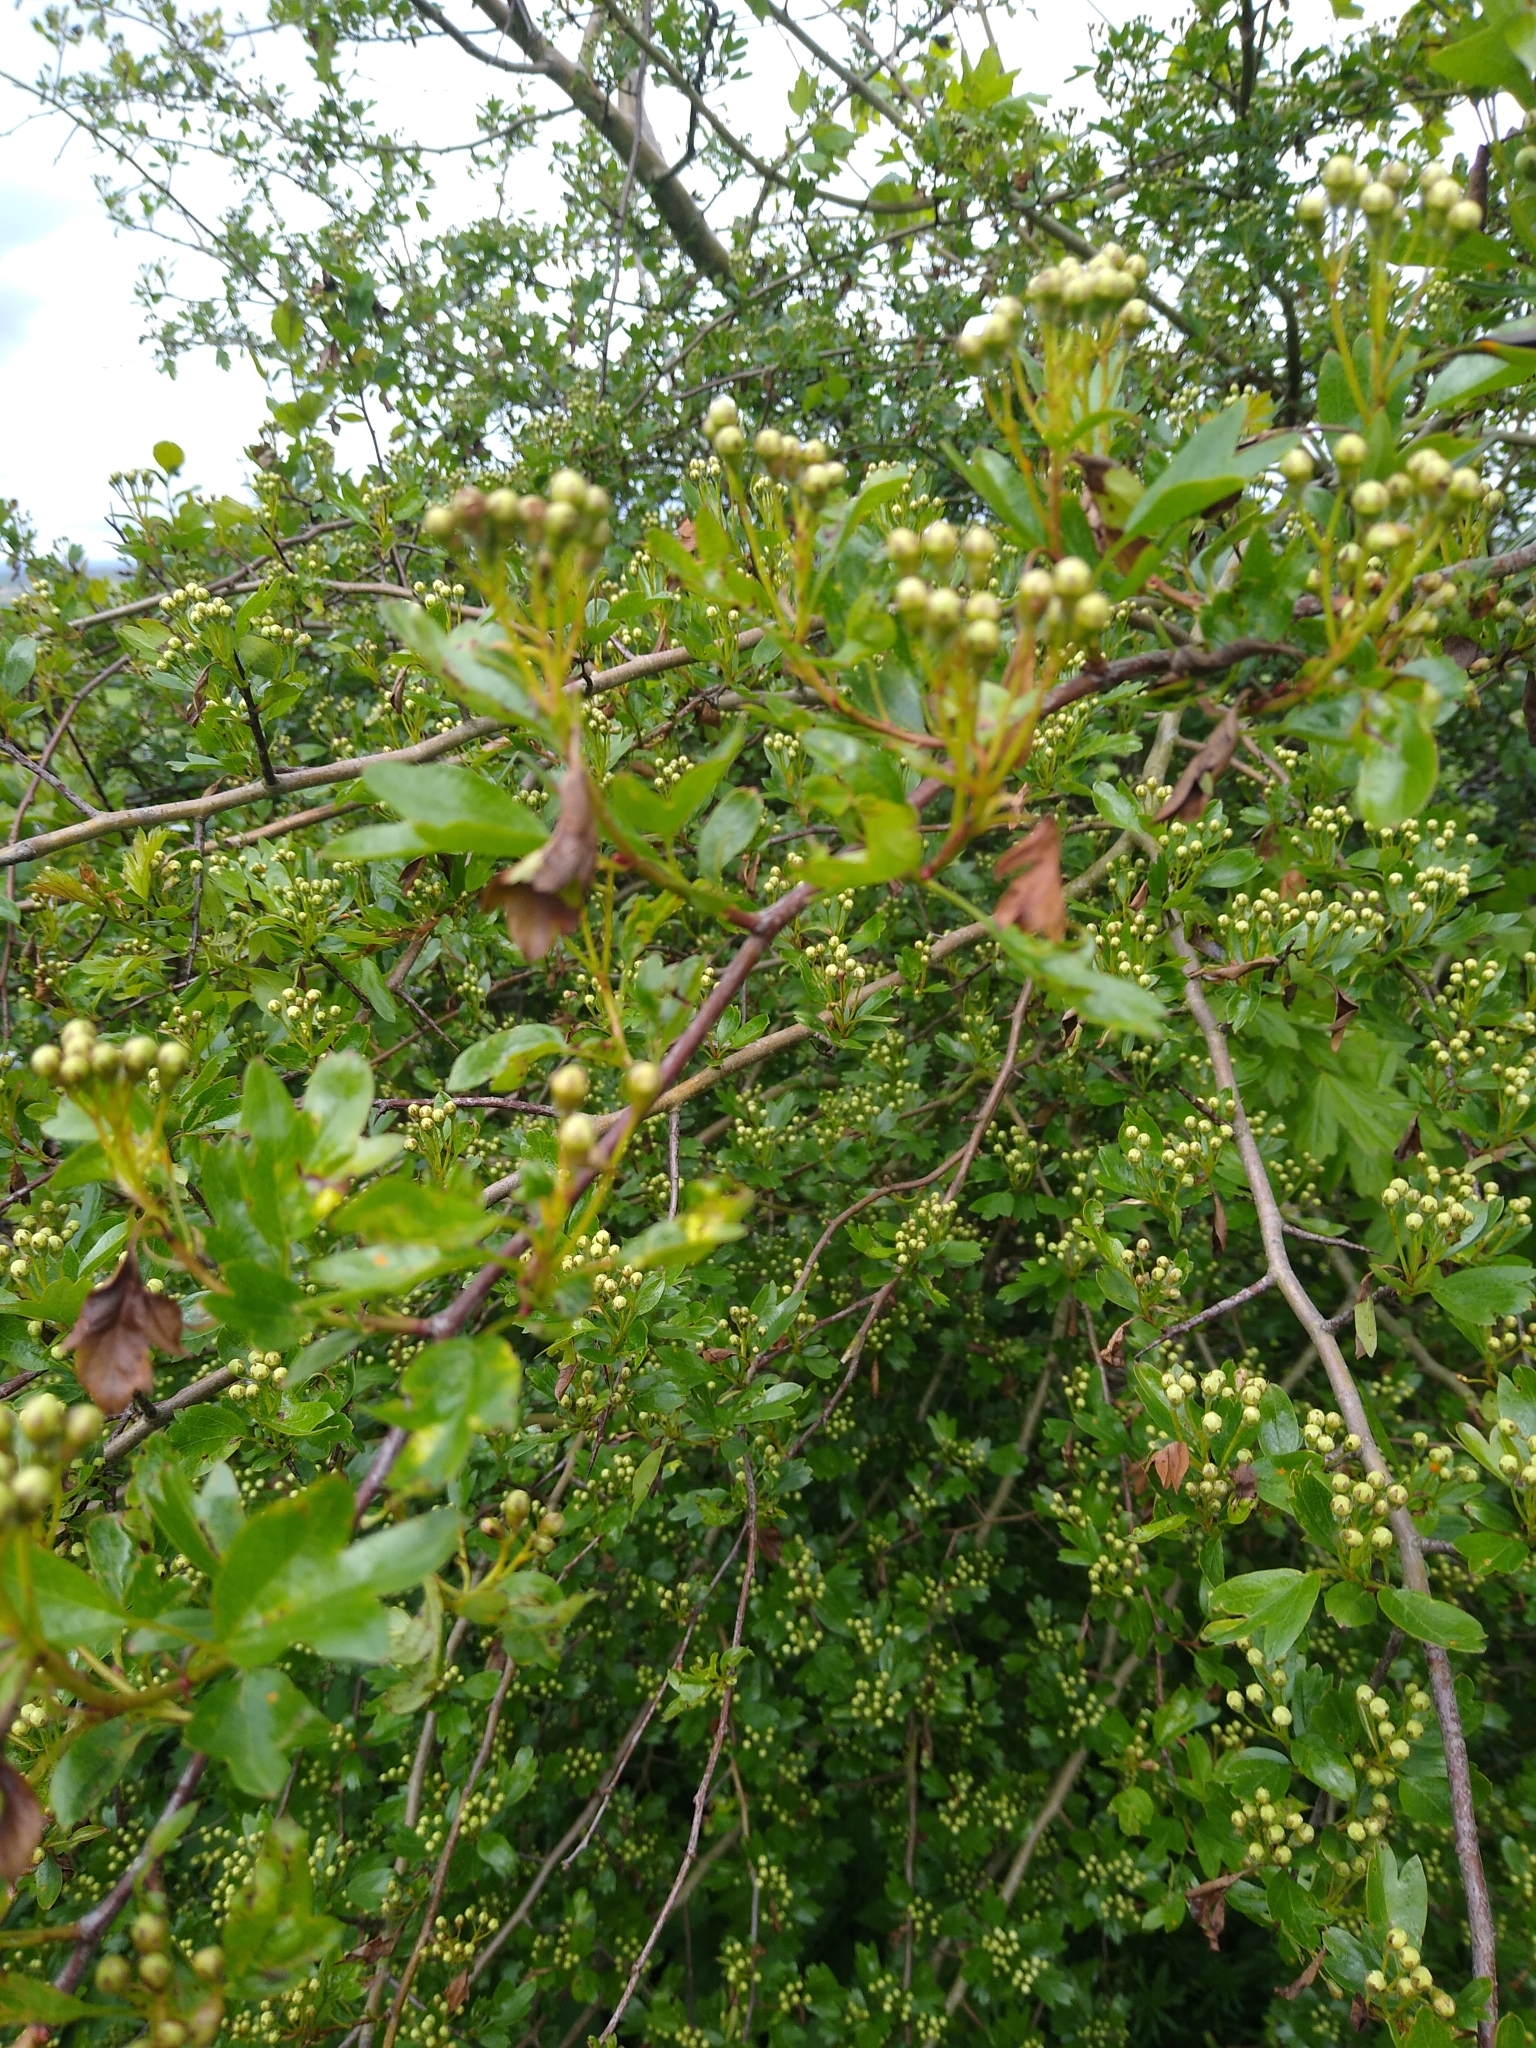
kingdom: Plantae
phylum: Tracheophyta
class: Magnoliopsida
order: Rosales
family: Rosaceae
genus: Crataegus
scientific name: Crataegus monogyna
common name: Hawthorn
